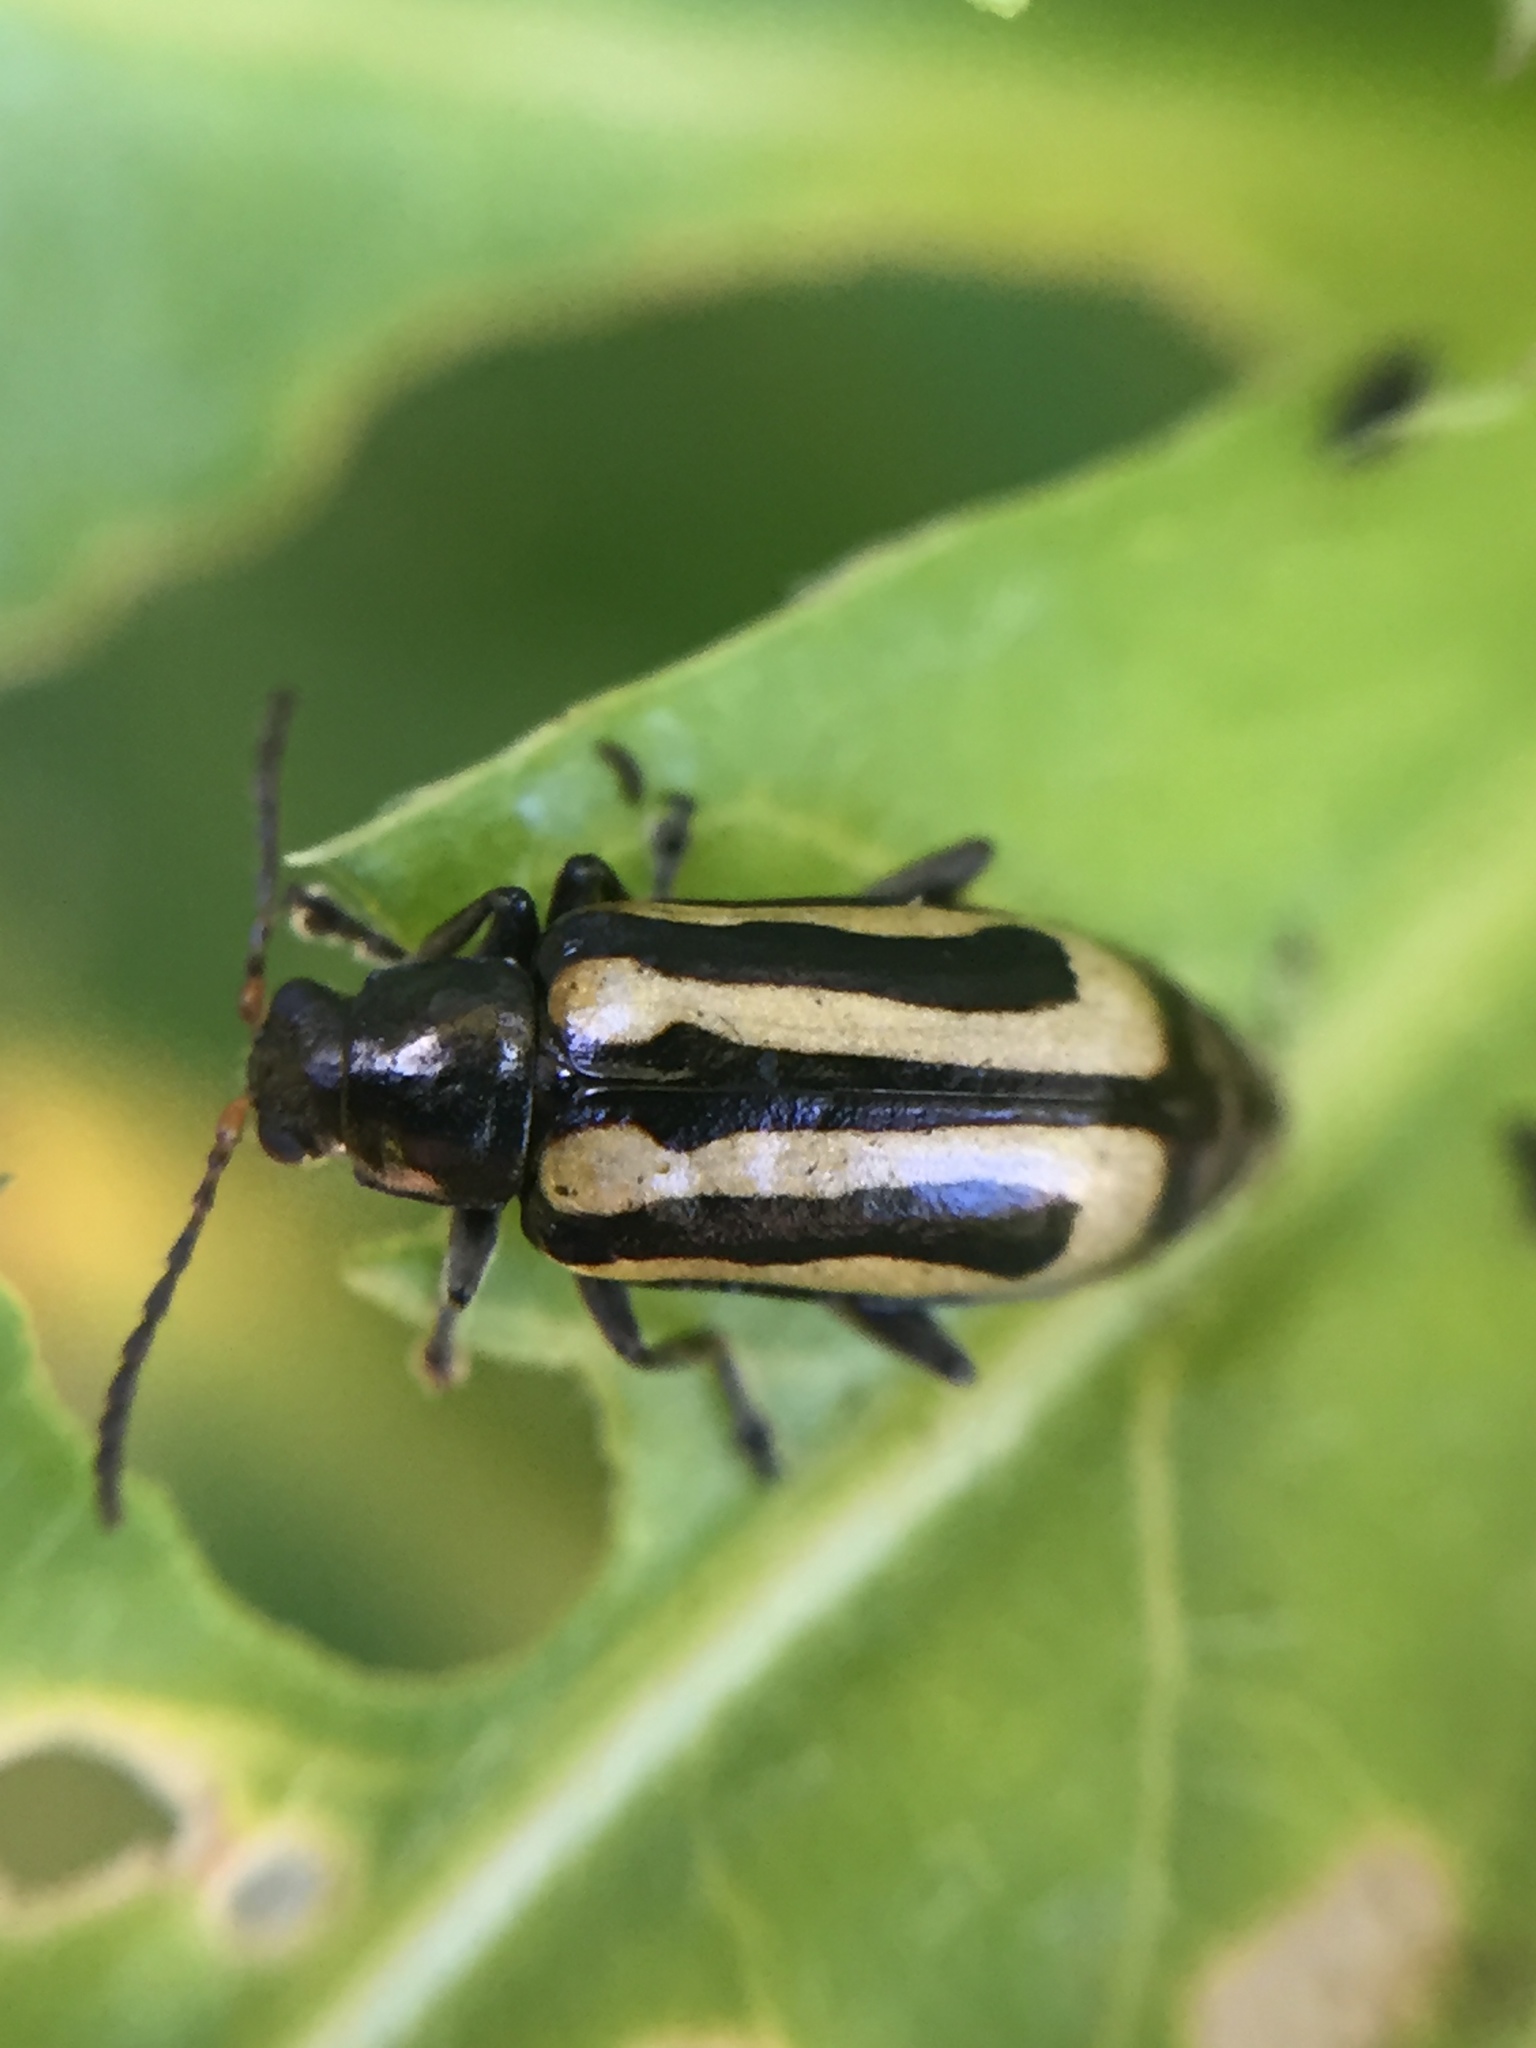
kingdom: Animalia
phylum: Arthropoda
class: Insecta
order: Coleoptera
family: Chrysomelidae
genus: Agasicles
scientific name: Agasicles hygrophila
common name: Alligatorweed flea beetle
